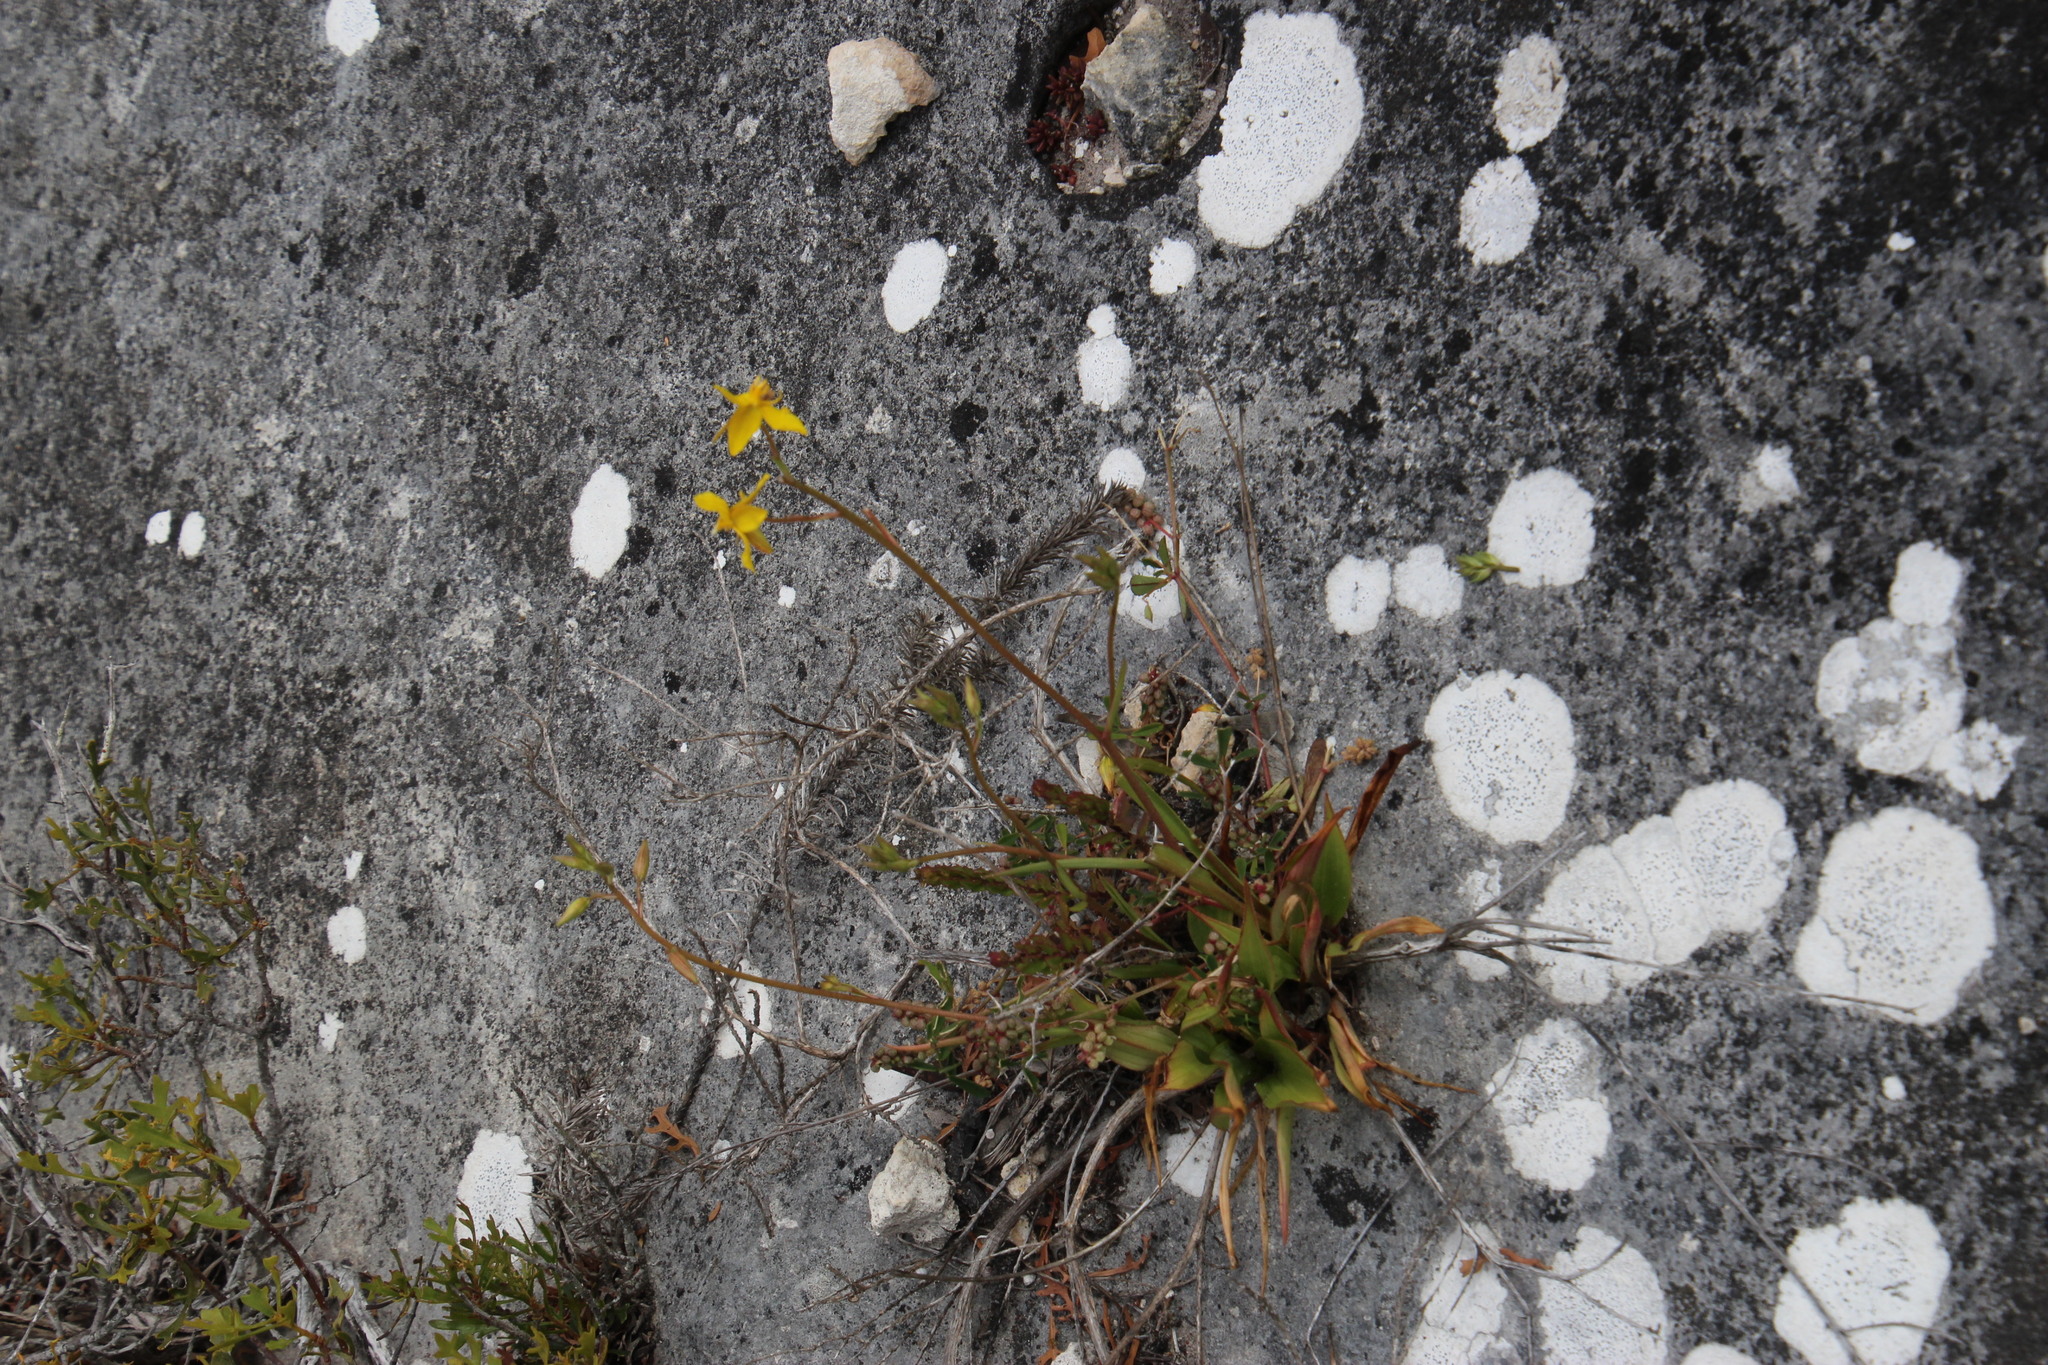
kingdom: Plantae
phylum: Tracheophyta
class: Liliopsida
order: Asparagales
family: Tecophilaeaceae
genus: Cyanella
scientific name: Cyanella lutea
